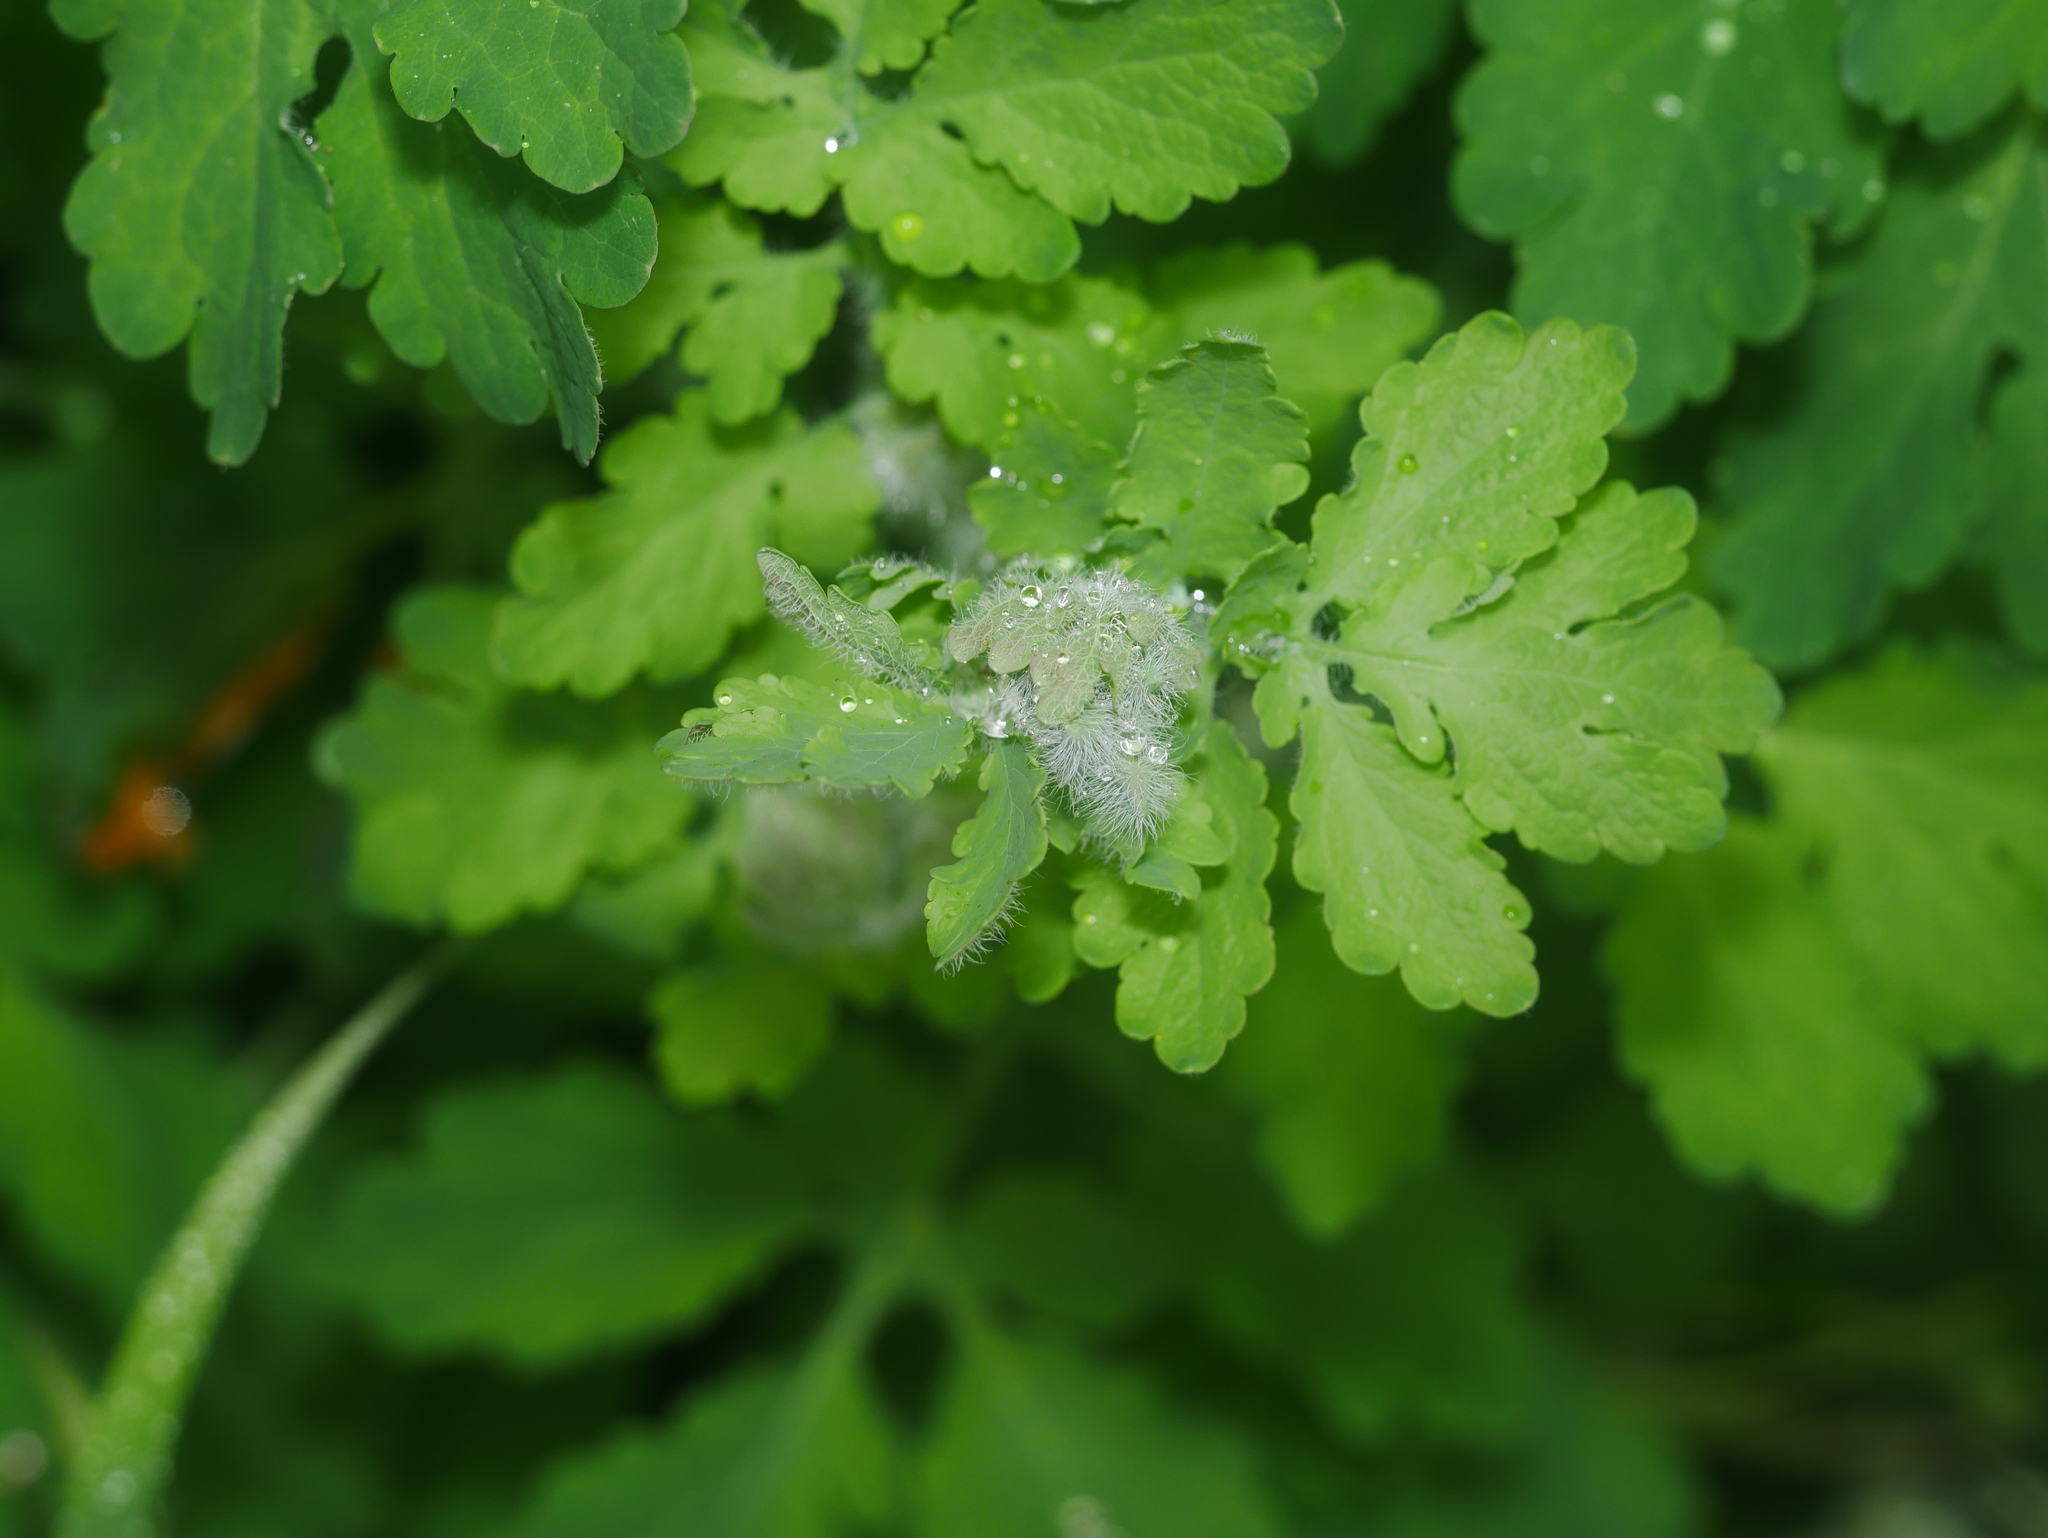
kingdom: Plantae
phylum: Tracheophyta
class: Magnoliopsida
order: Ranunculales
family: Papaveraceae
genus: Chelidonium
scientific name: Chelidonium majus
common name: Greater celandine
